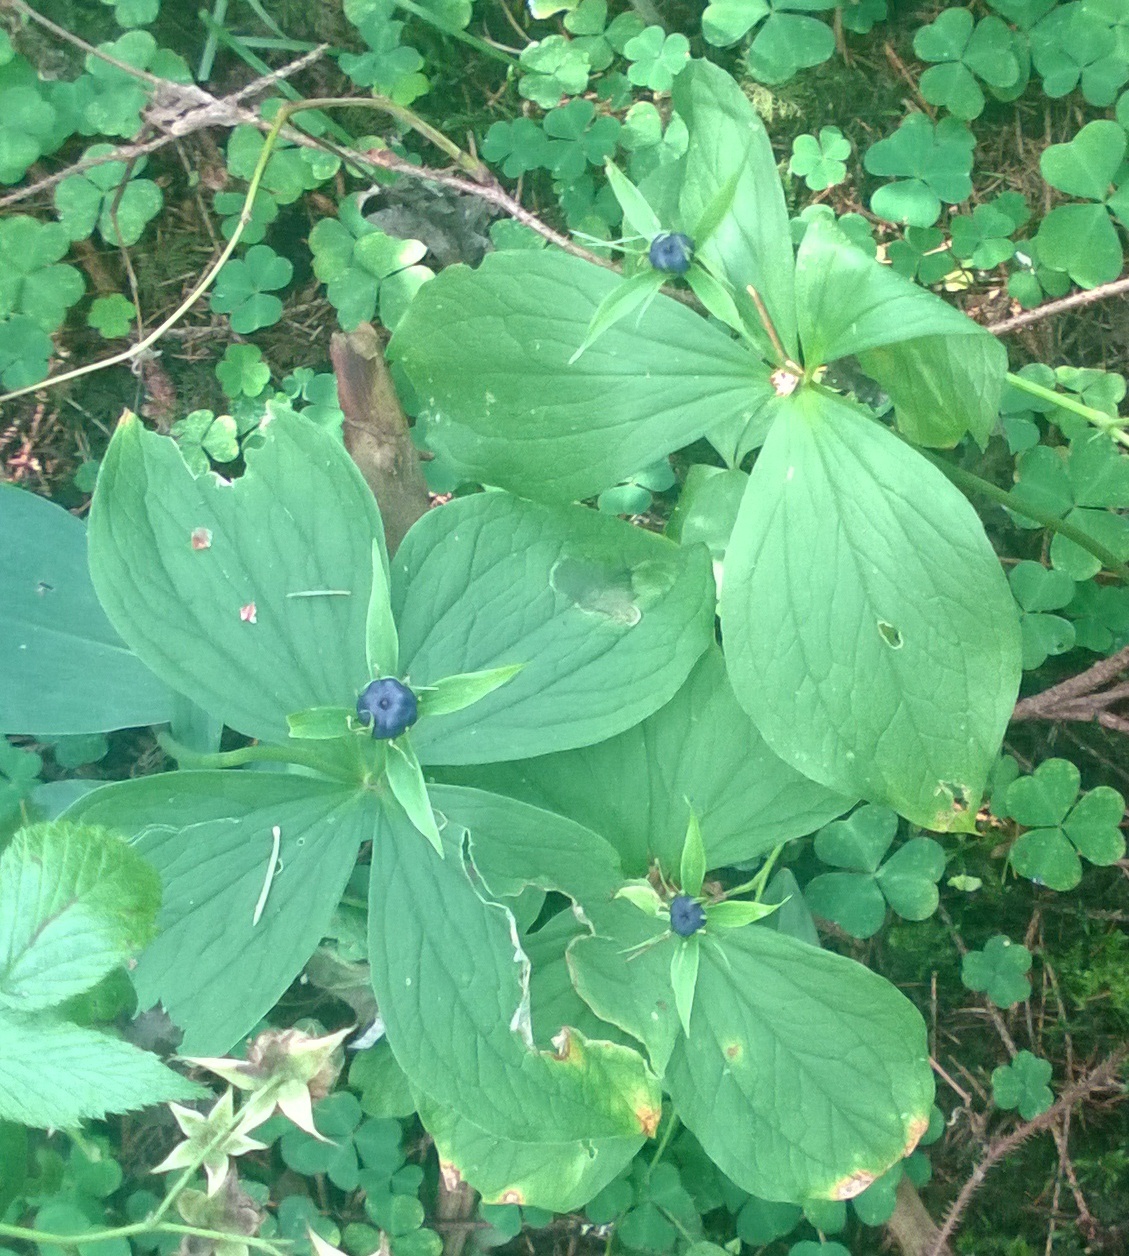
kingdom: Plantae
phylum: Tracheophyta
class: Liliopsida
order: Liliales
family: Melanthiaceae
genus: Paris
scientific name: Paris quadrifolia
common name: Herb-paris
